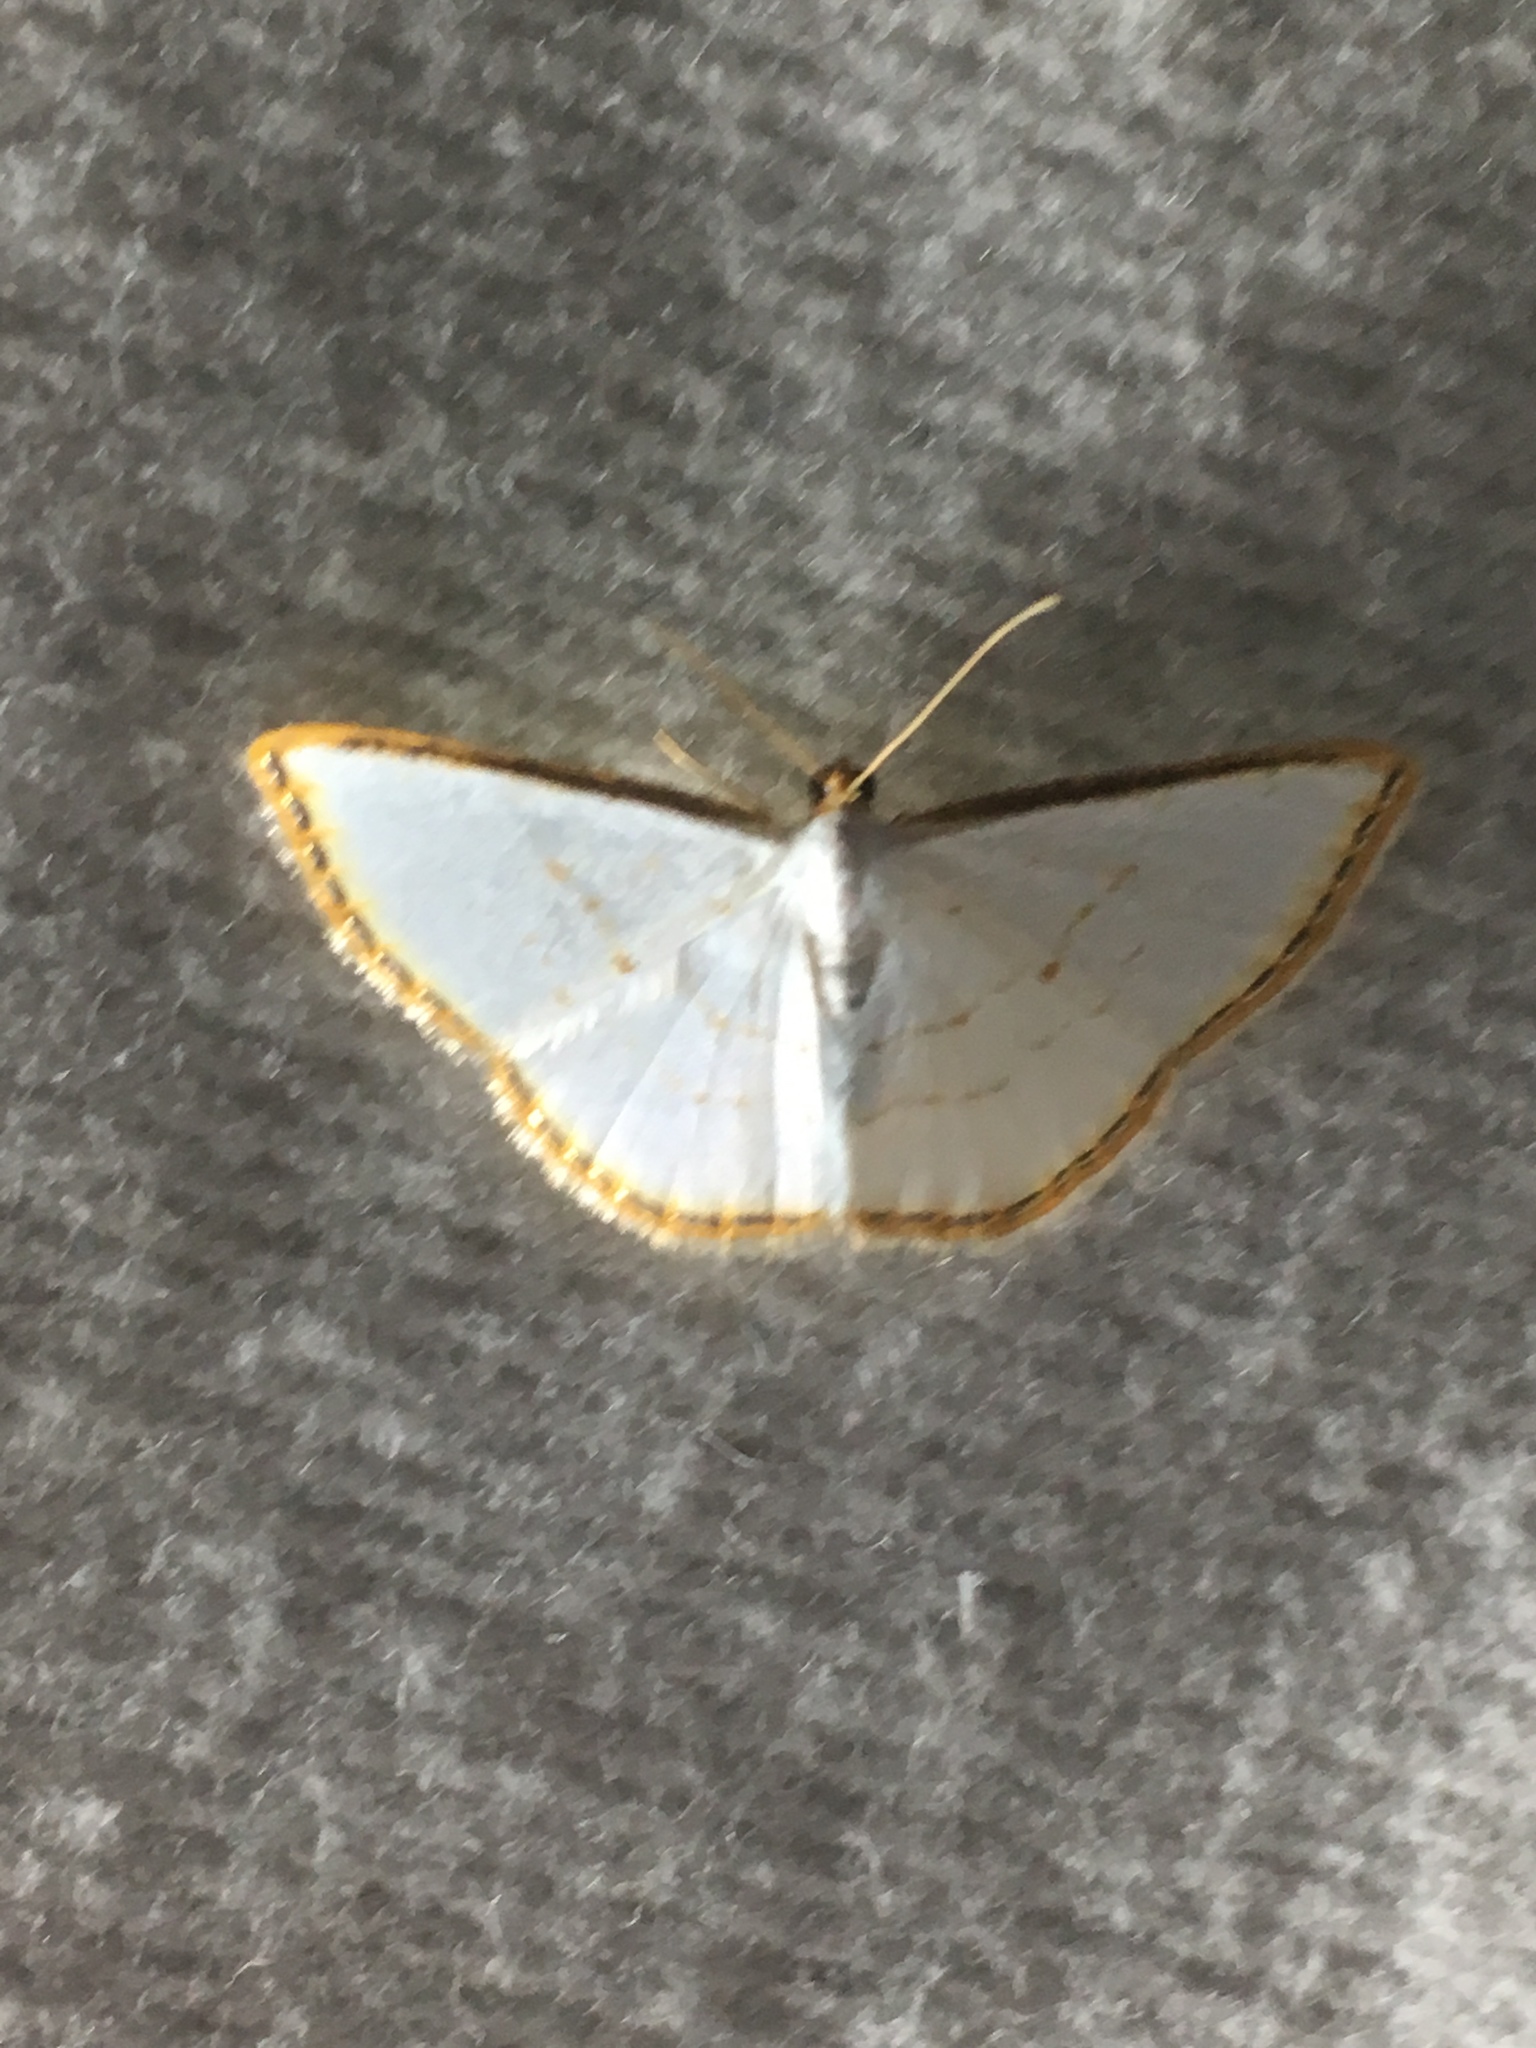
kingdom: Animalia
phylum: Arthropoda
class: Insecta
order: Lepidoptera
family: Geometridae
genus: Leuciris
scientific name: Leuciris fimbriaria
